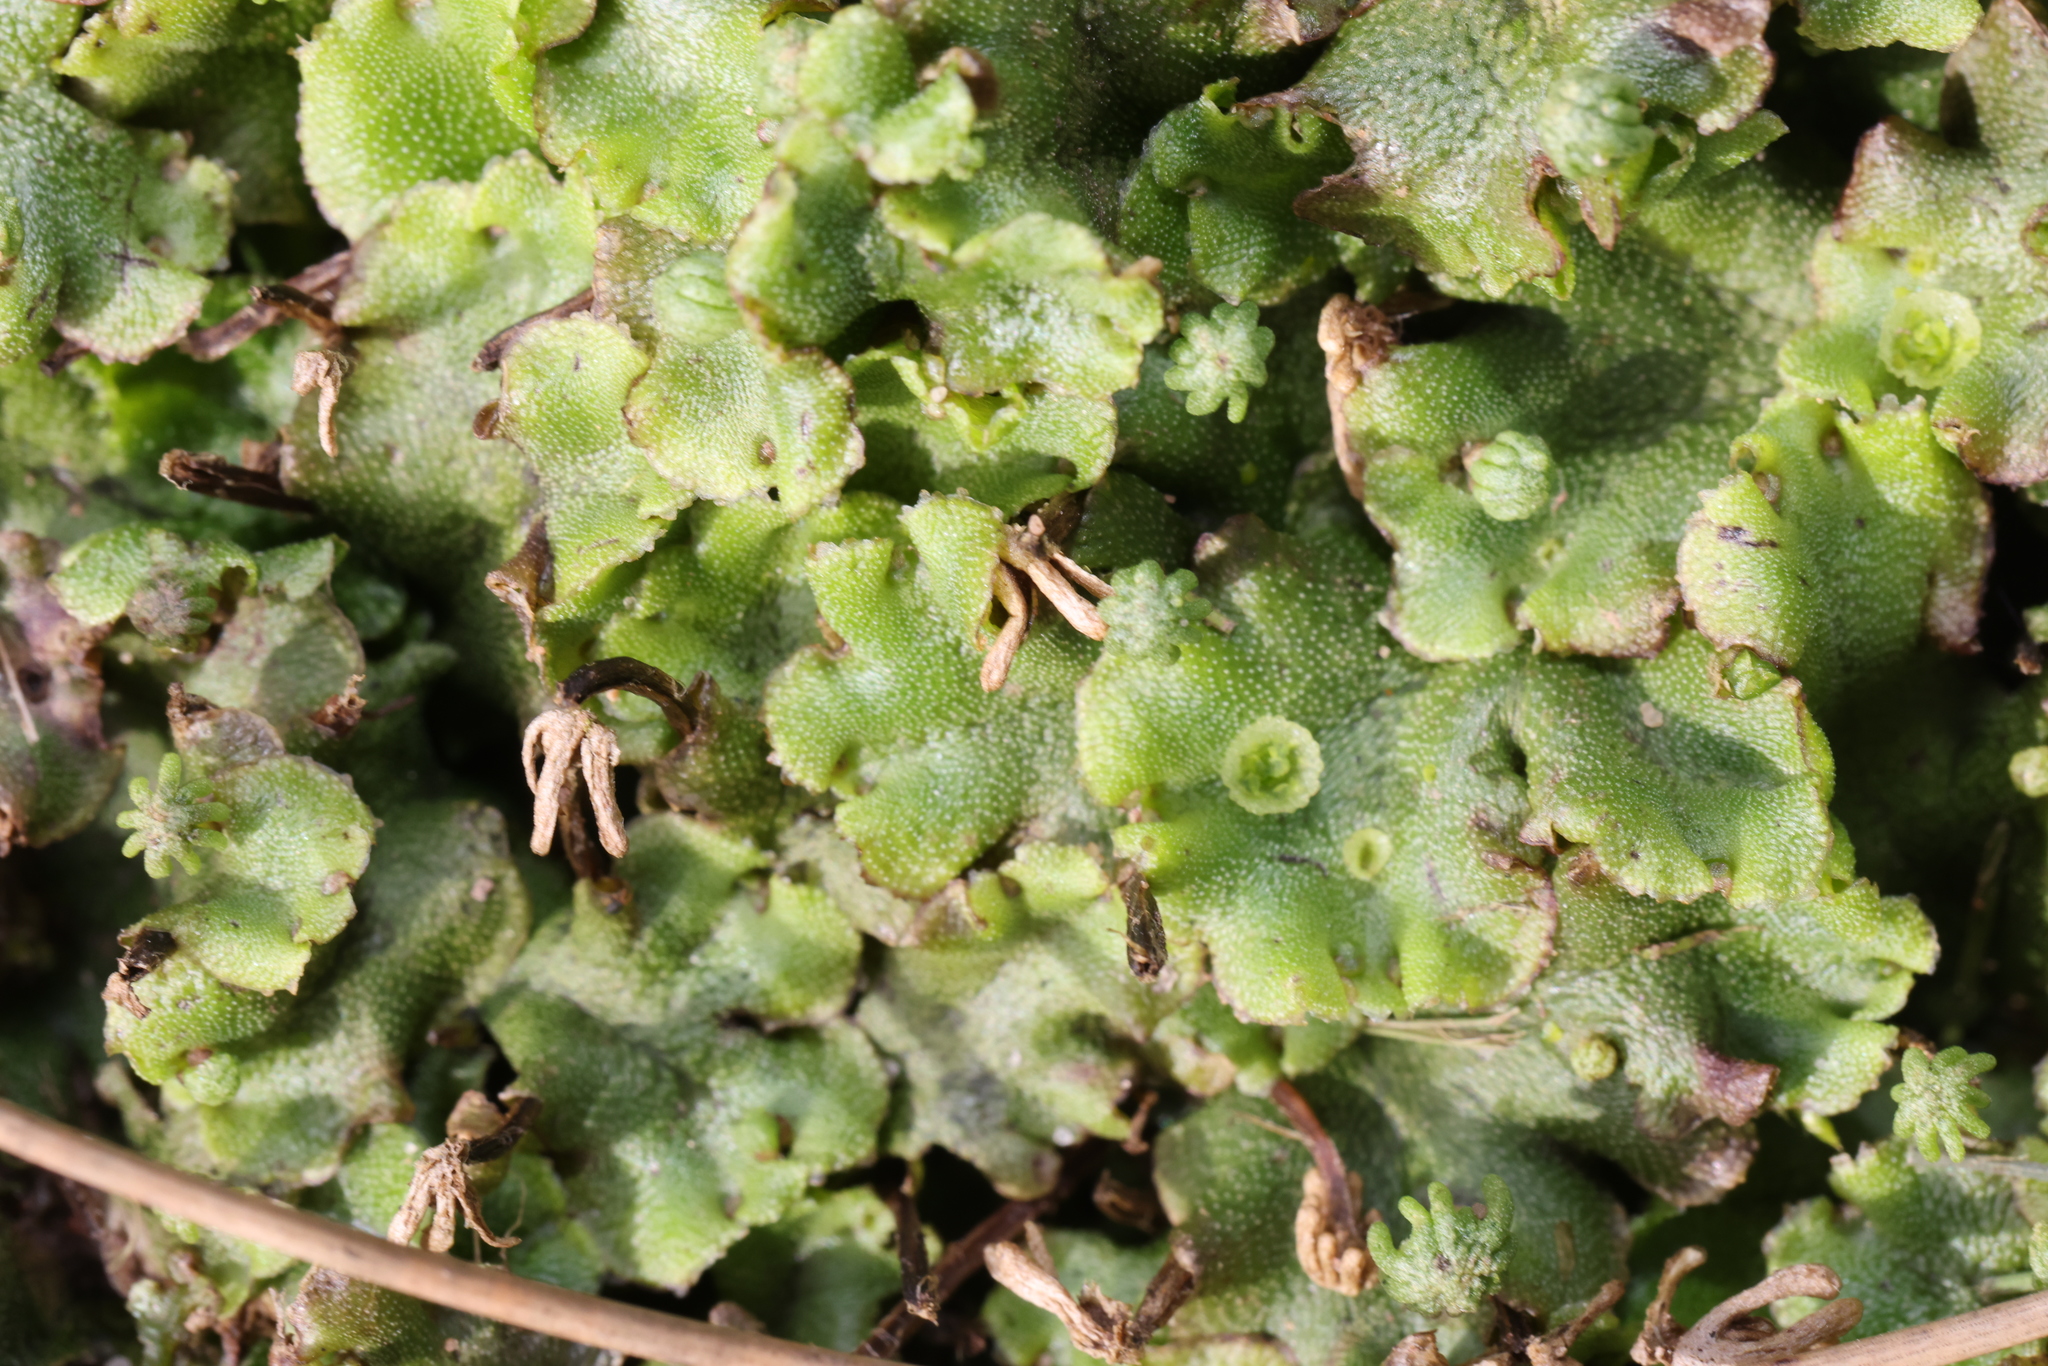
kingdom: Plantae
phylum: Marchantiophyta
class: Marchantiopsida
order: Marchantiales
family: Marchantiaceae
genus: Marchantia
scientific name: Marchantia polymorpha
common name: Common liverwort
